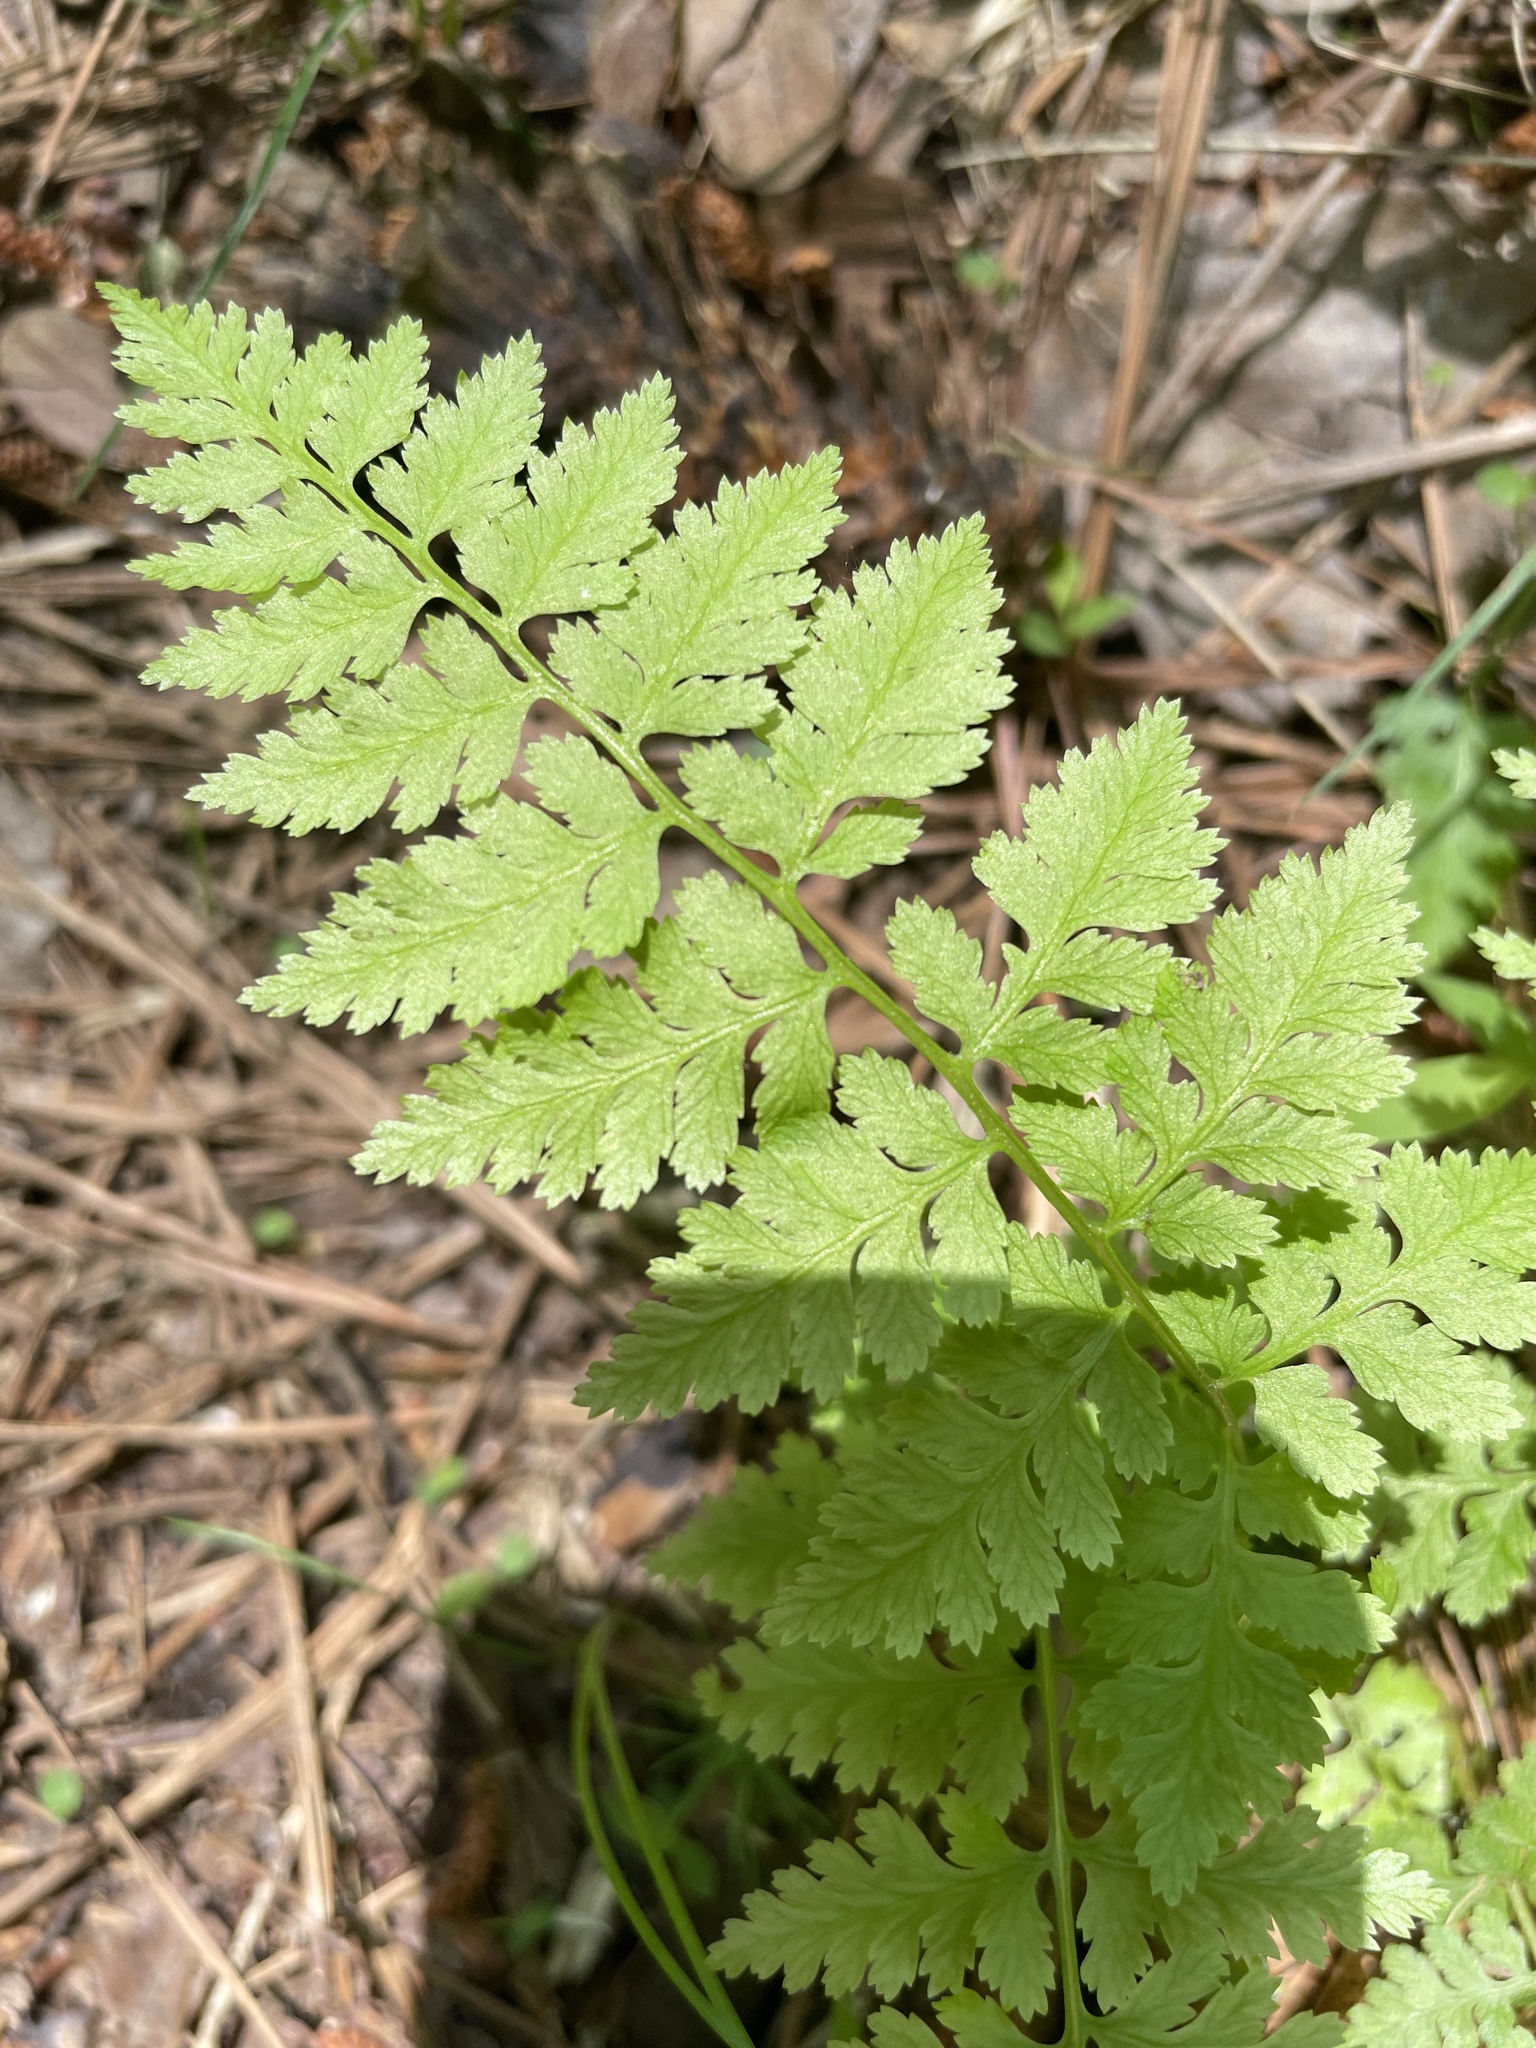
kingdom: Plantae
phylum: Tracheophyta
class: Polypodiopsida
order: Polypodiales
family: Athyriaceae
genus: Athyrium
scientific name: Athyrium asplenioides
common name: Southern lady fern
